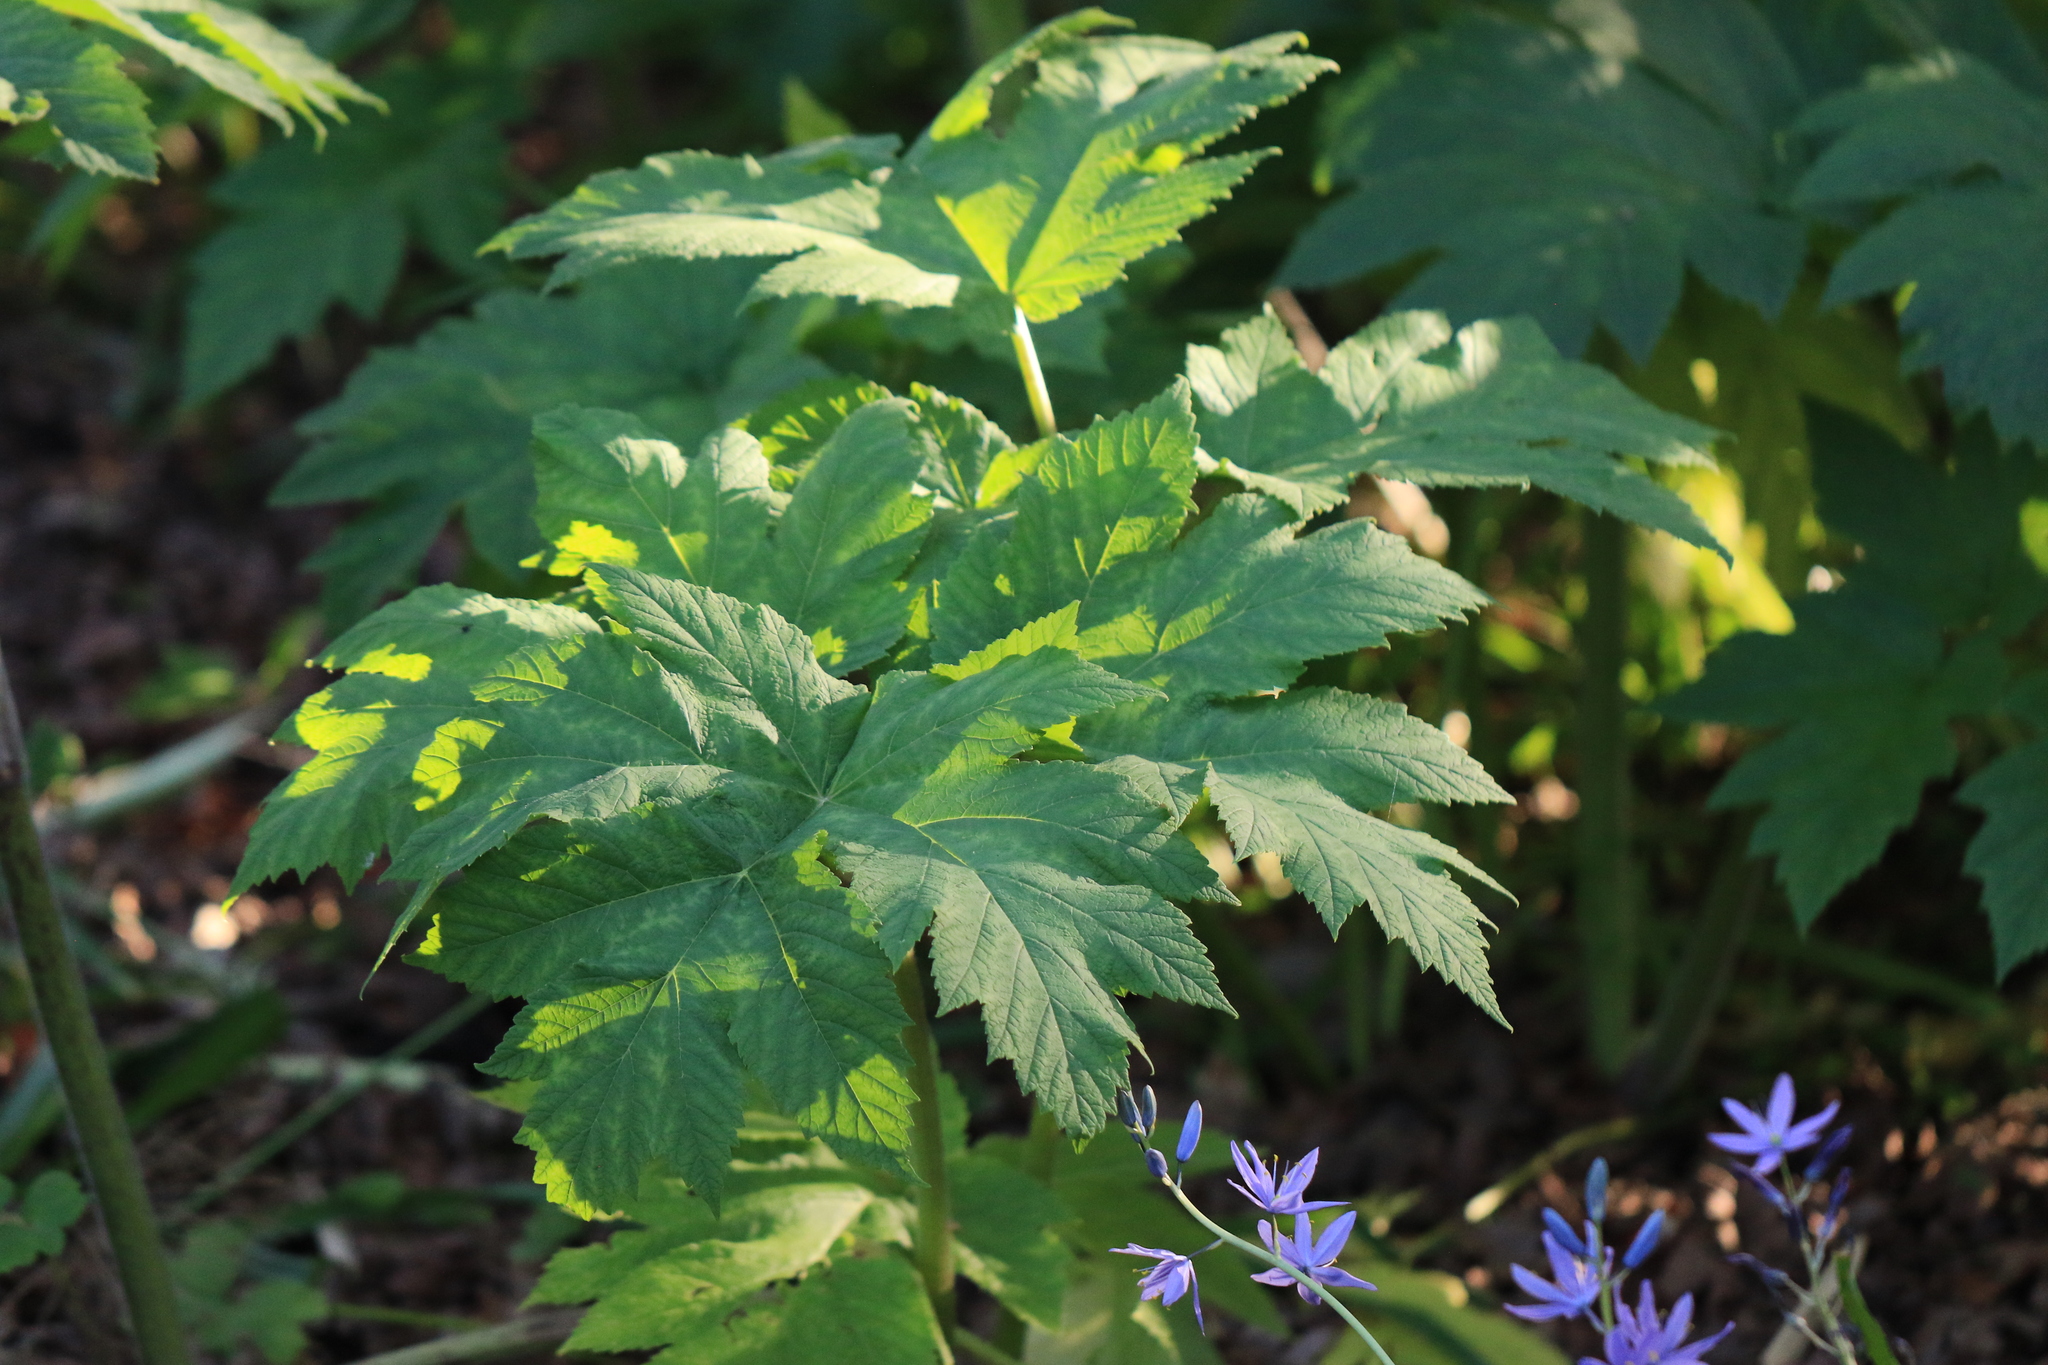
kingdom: Plantae
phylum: Tracheophyta
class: Magnoliopsida
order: Apiales
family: Apiaceae
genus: Heracleum
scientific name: Heracleum maximum
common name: American cow parsnip
